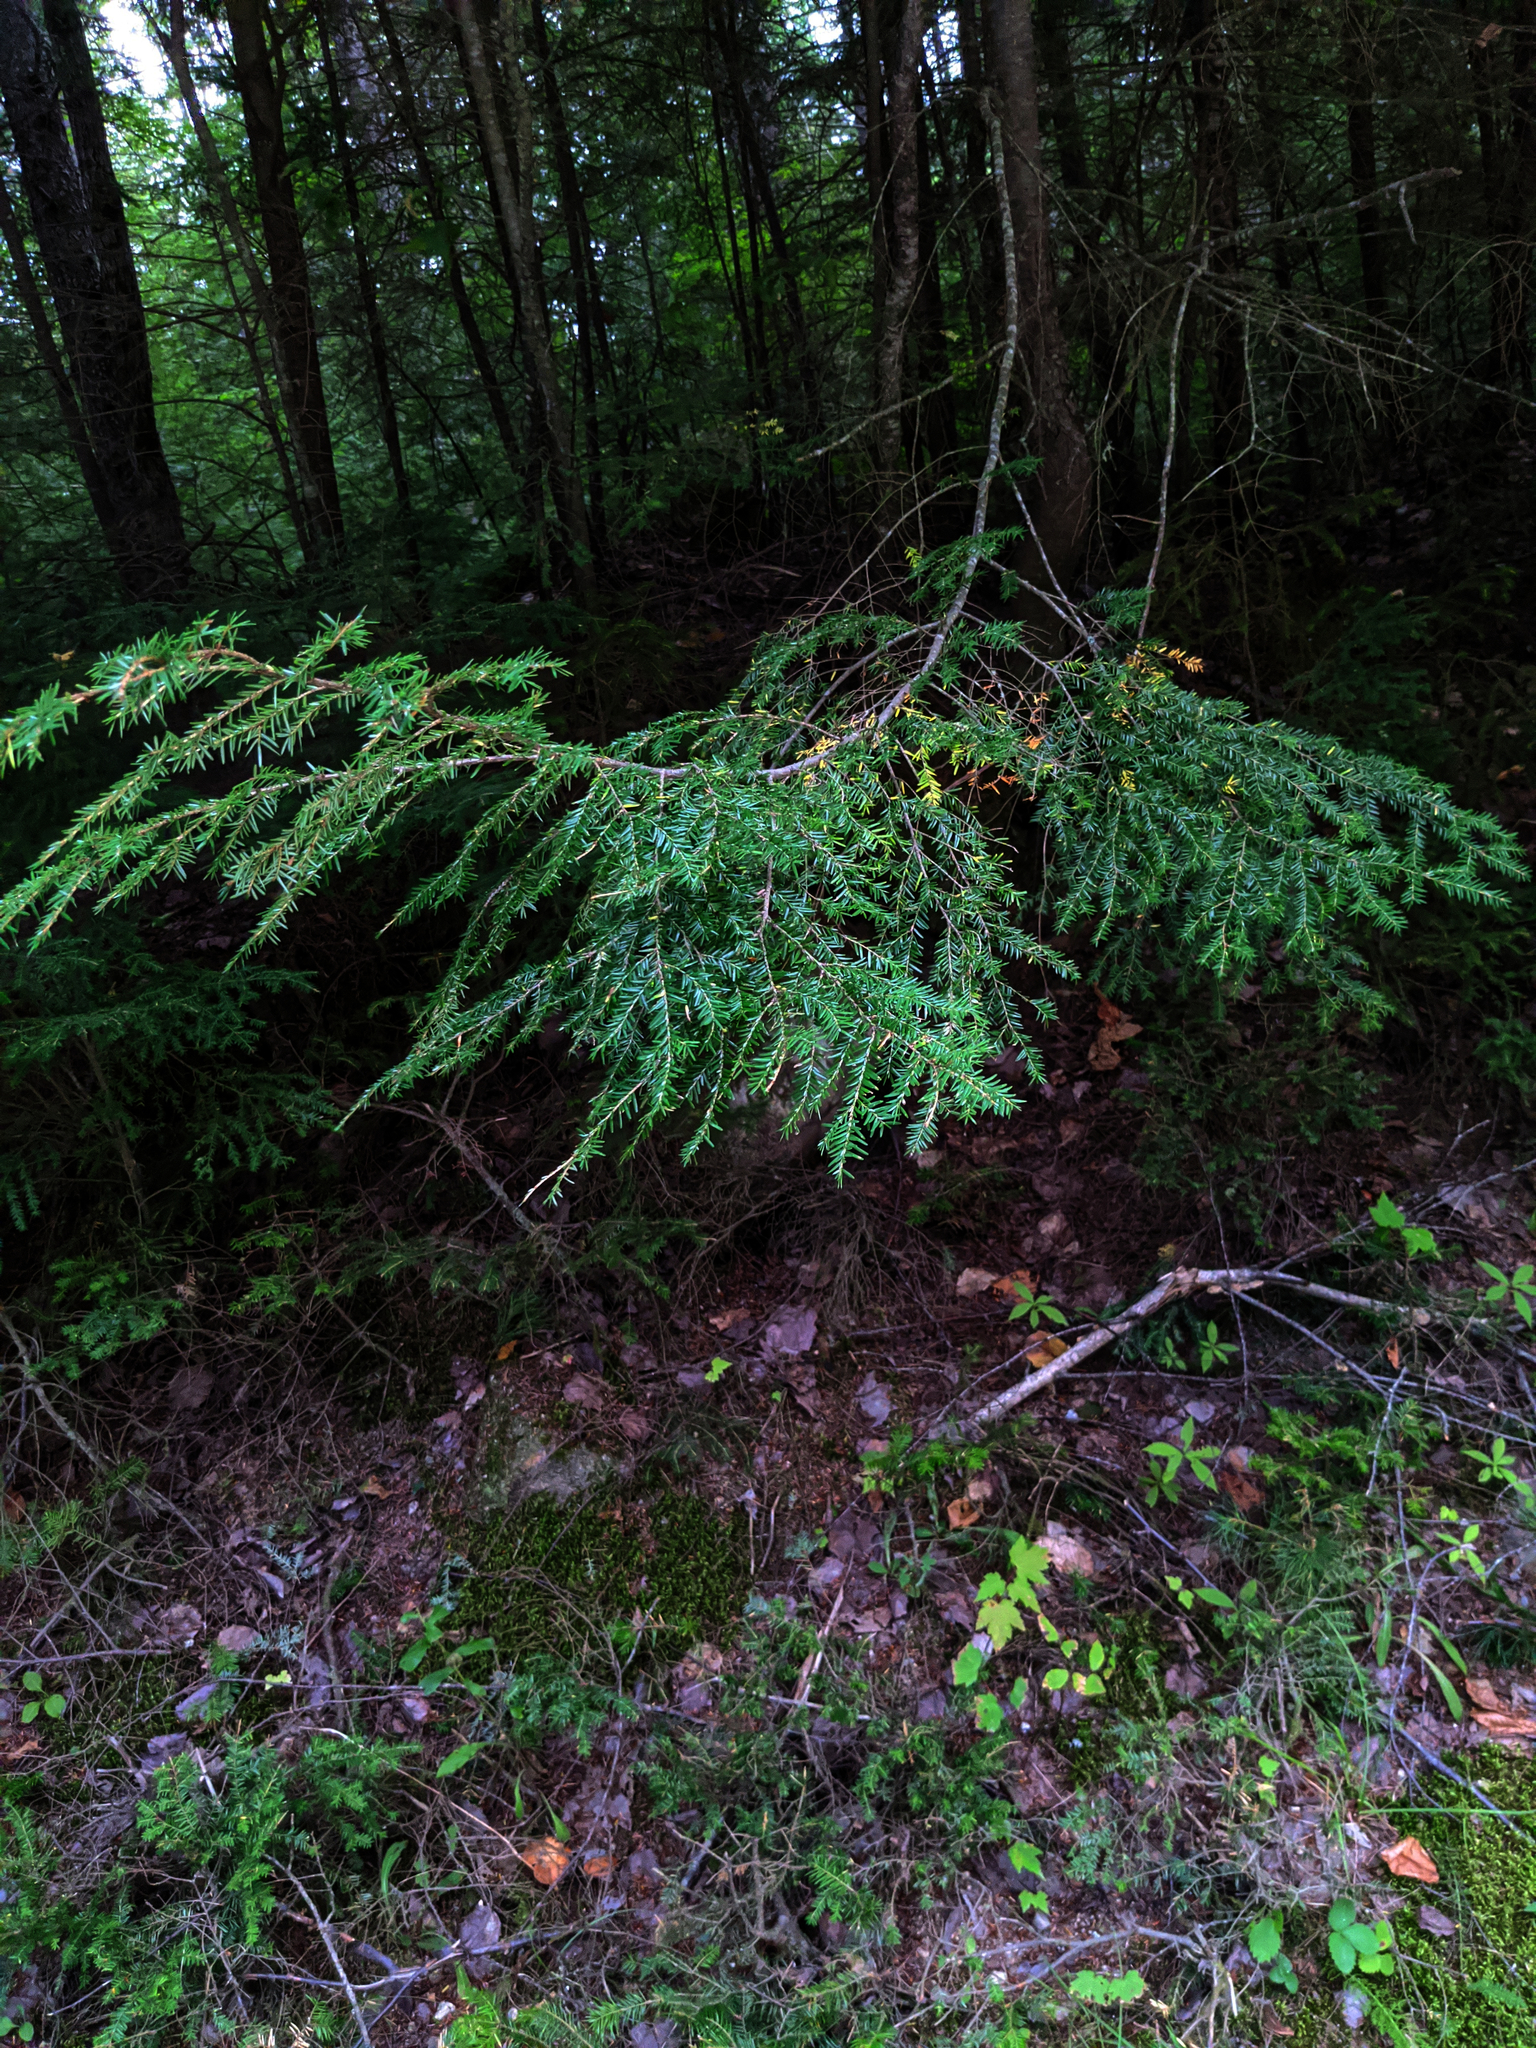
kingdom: Plantae
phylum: Tracheophyta
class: Pinopsida
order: Pinales
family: Pinaceae
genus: Tsuga
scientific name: Tsuga canadensis
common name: Eastern hemlock
